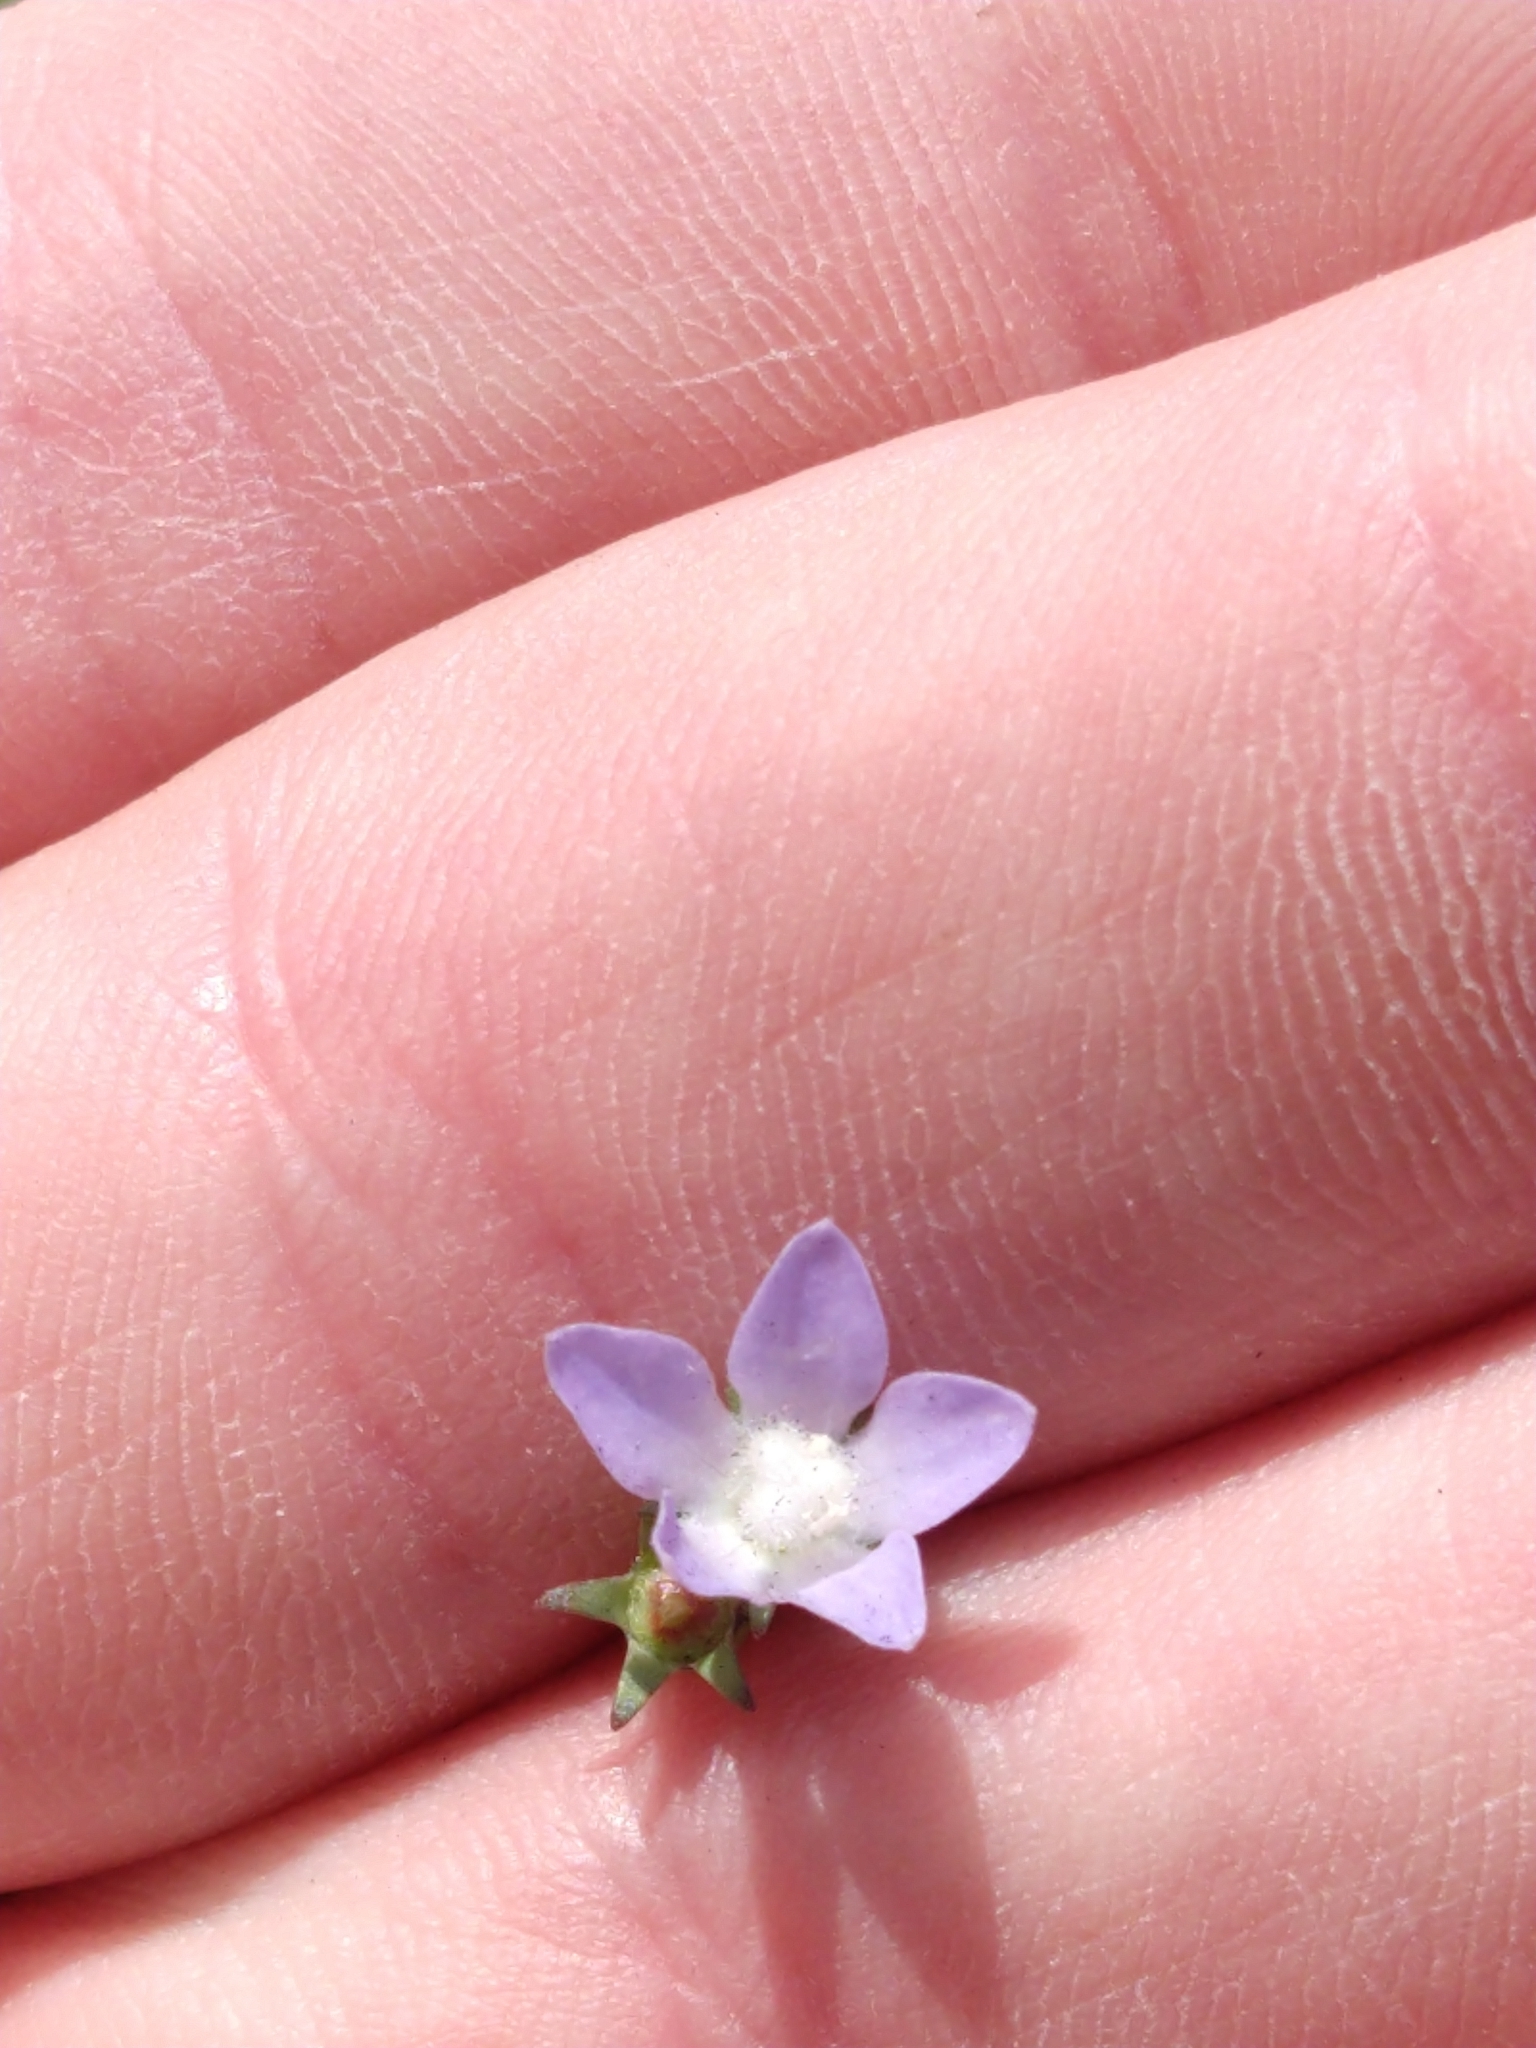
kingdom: Plantae
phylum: Tracheophyta
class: Magnoliopsida
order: Asterales
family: Campanulaceae
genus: Wahlenbergia
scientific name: Wahlenbergia marginata
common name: Southern rockbell
